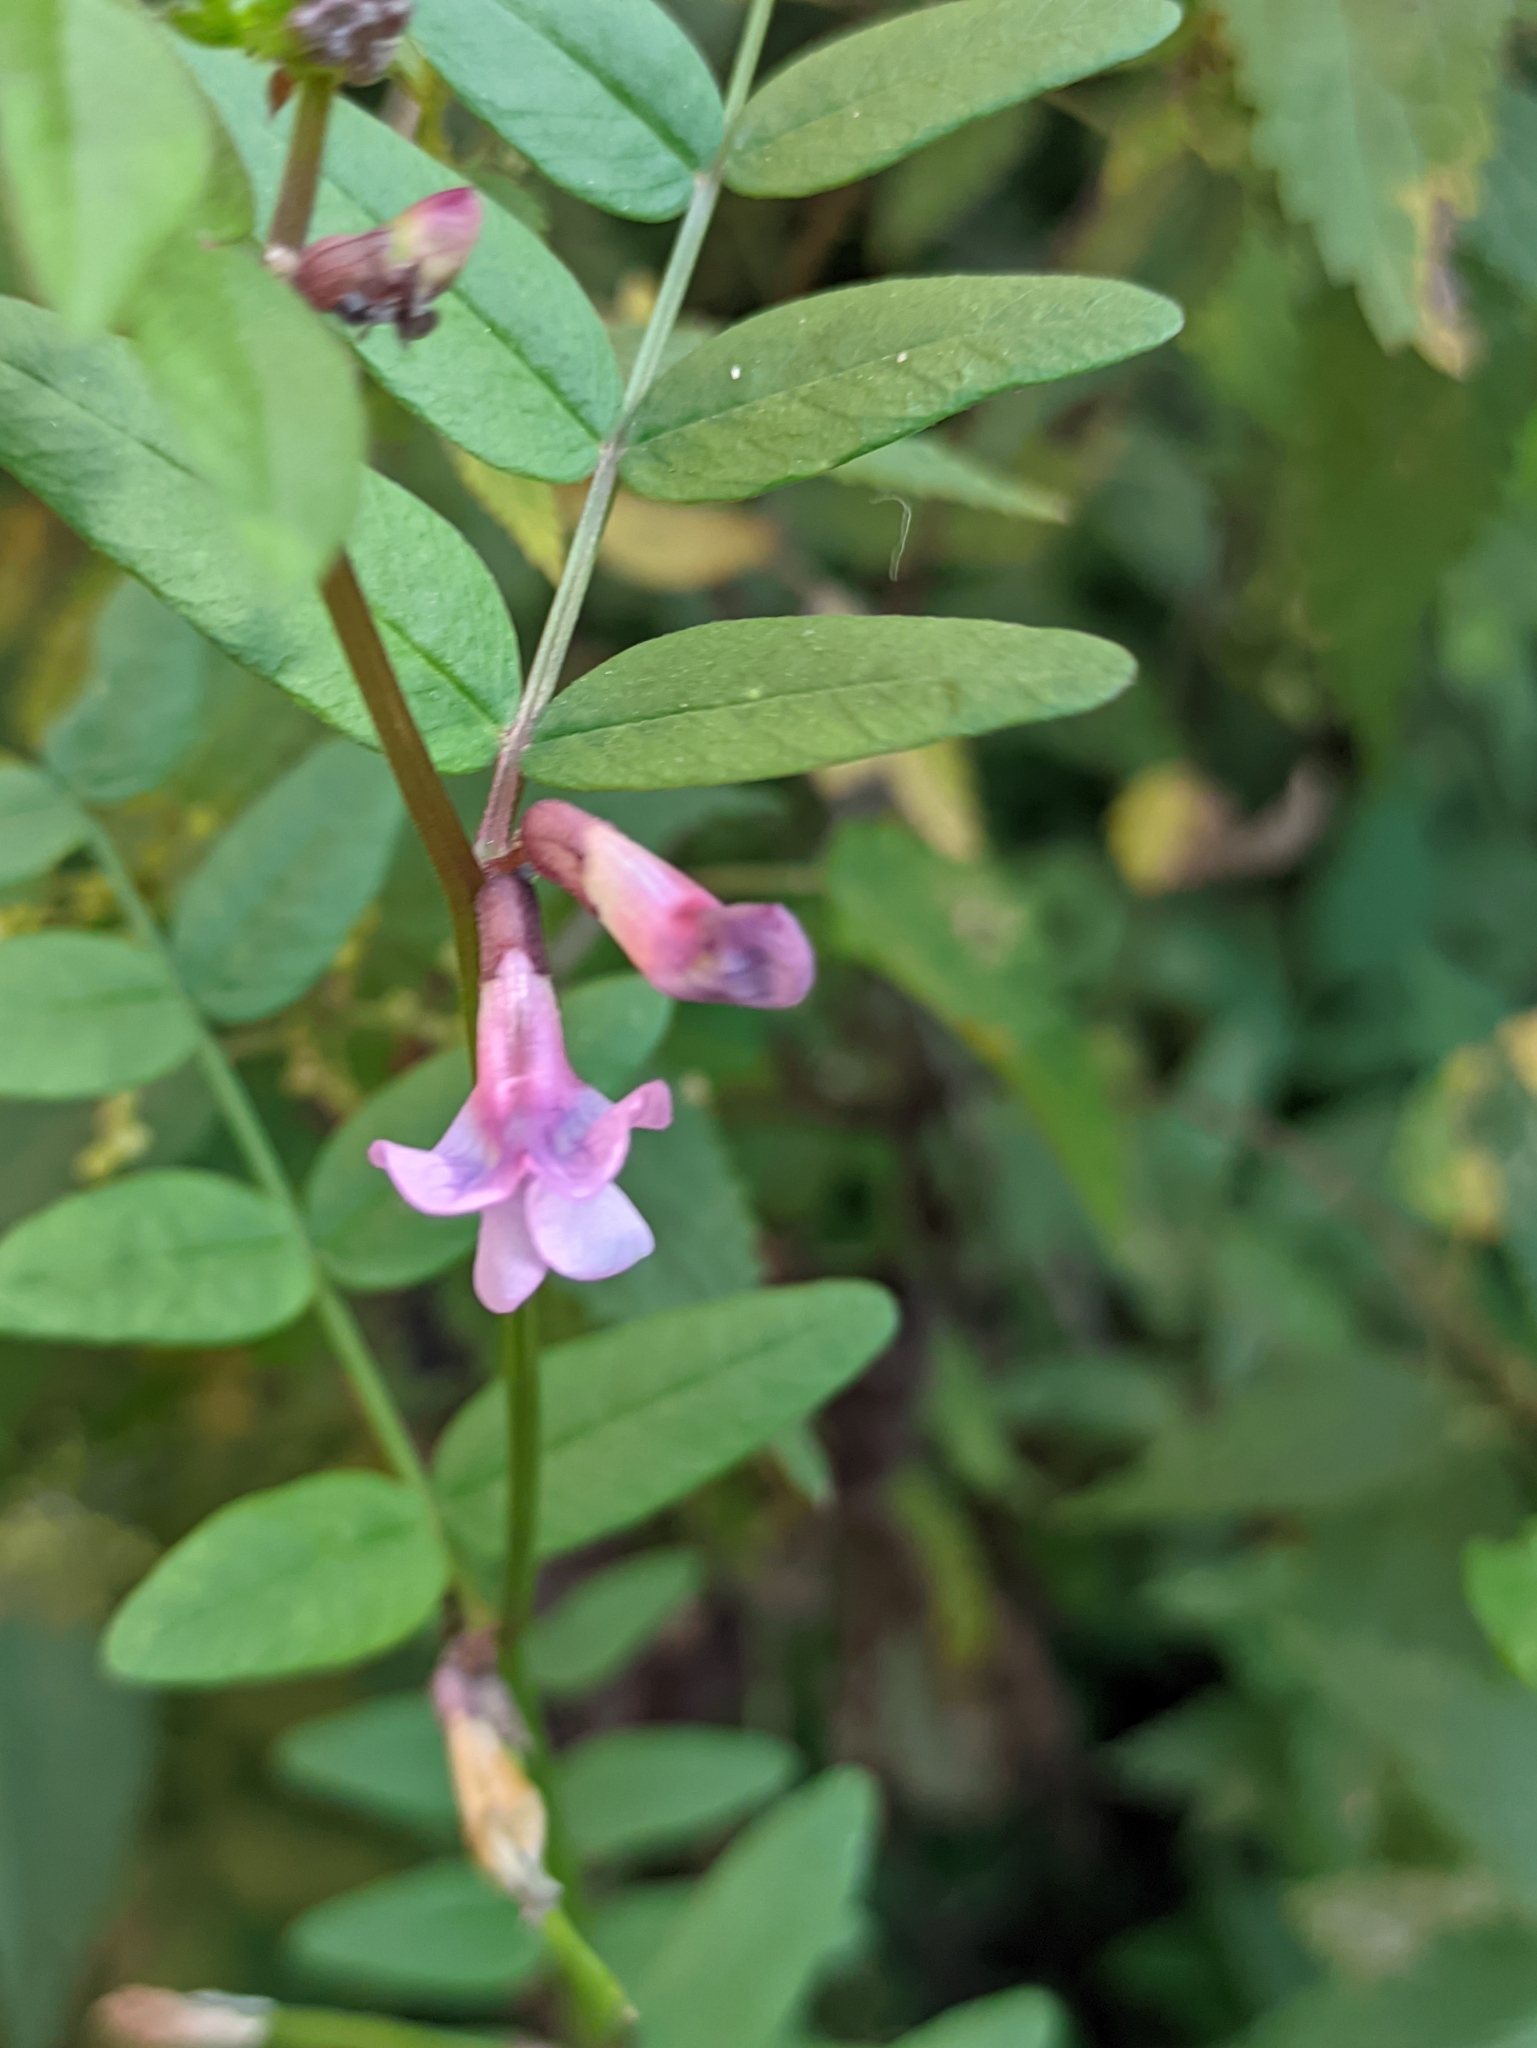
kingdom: Plantae
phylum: Tracheophyta
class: Magnoliopsida
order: Fabales
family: Fabaceae
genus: Vicia
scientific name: Vicia sepium
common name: Bush vetch
